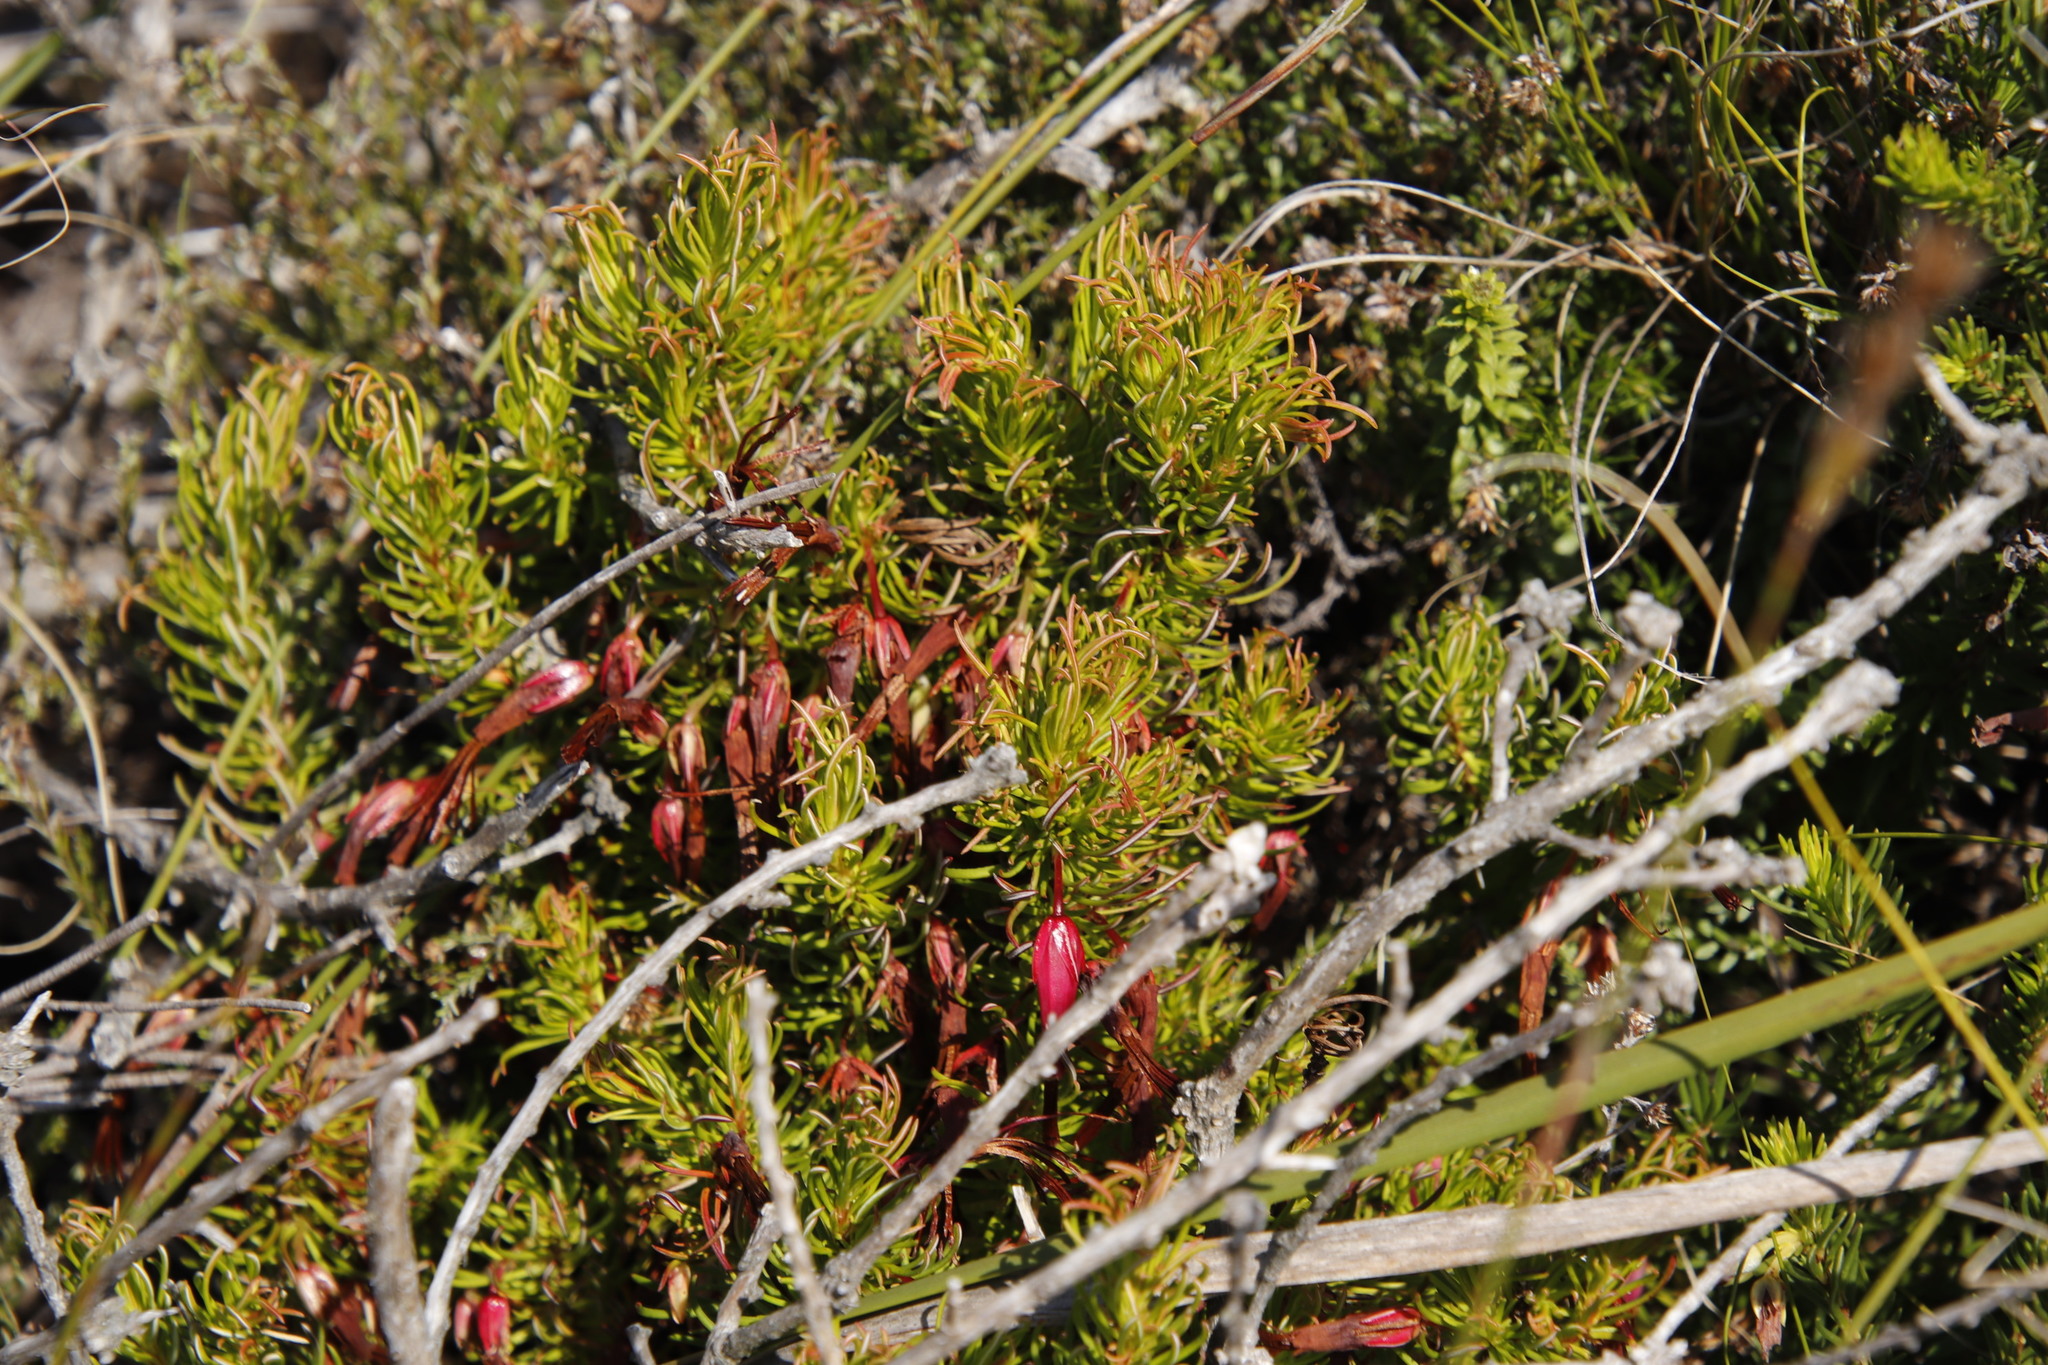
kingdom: Plantae
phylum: Tracheophyta
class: Magnoliopsida
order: Ericales
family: Ericaceae
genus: Erica
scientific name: Erica plukenetii
